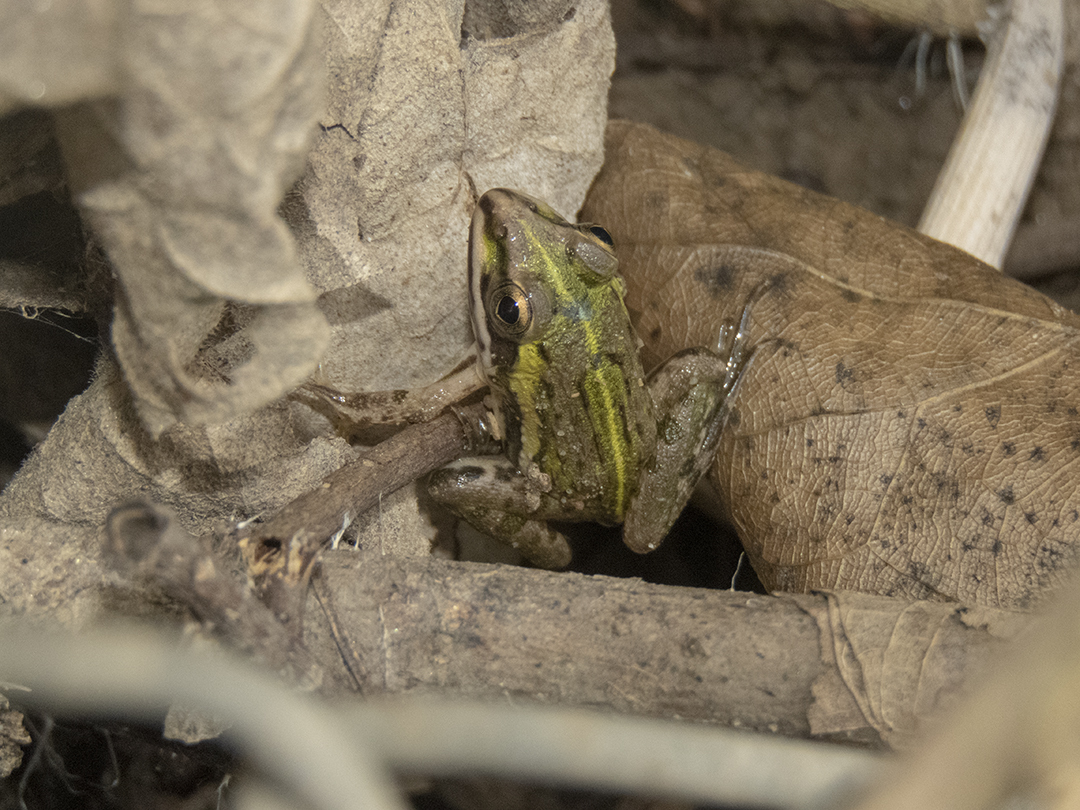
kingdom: Animalia
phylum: Chordata
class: Amphibia
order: Anura
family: Dicroglossidae
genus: Hoplobatrachus
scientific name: Hoplobatrachus tigerinus
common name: Indian bullfrog
